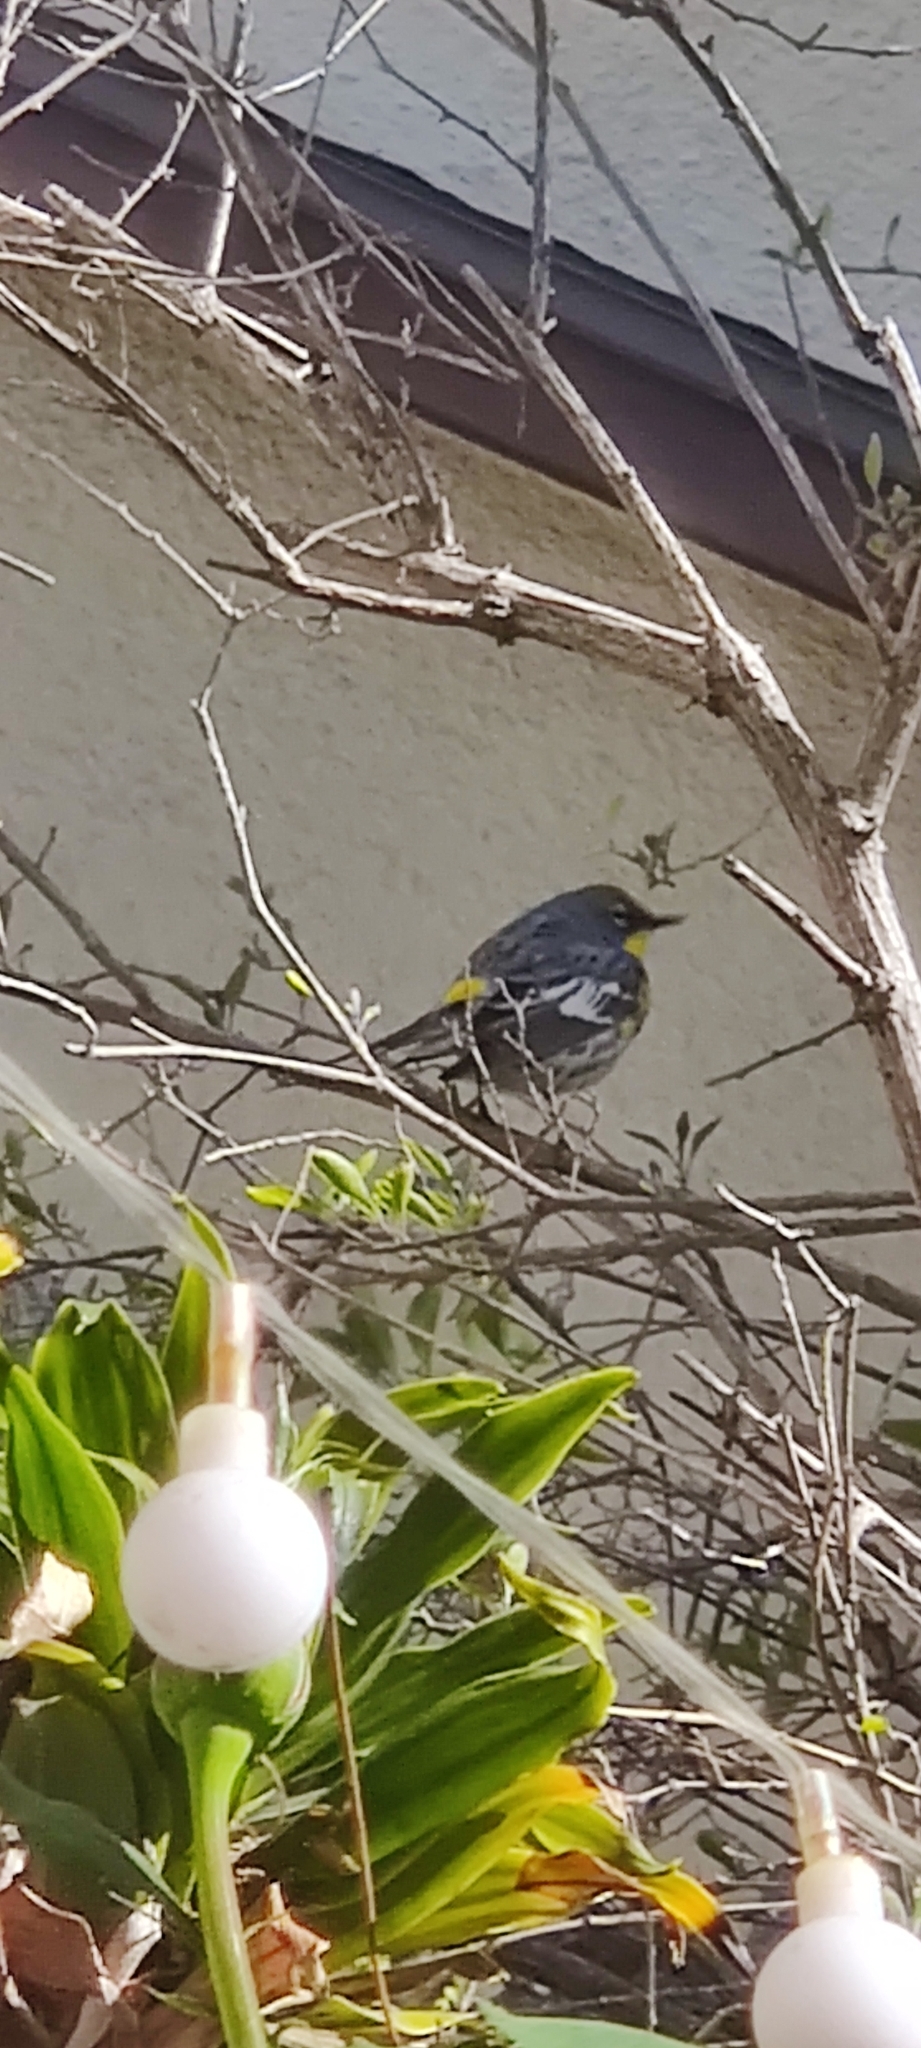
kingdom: Animalia
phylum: Chordata
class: Aves
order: Passeriformes
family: Parulidae
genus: Setophaga
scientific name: Setophaga coronata
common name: Myrtle warbler
